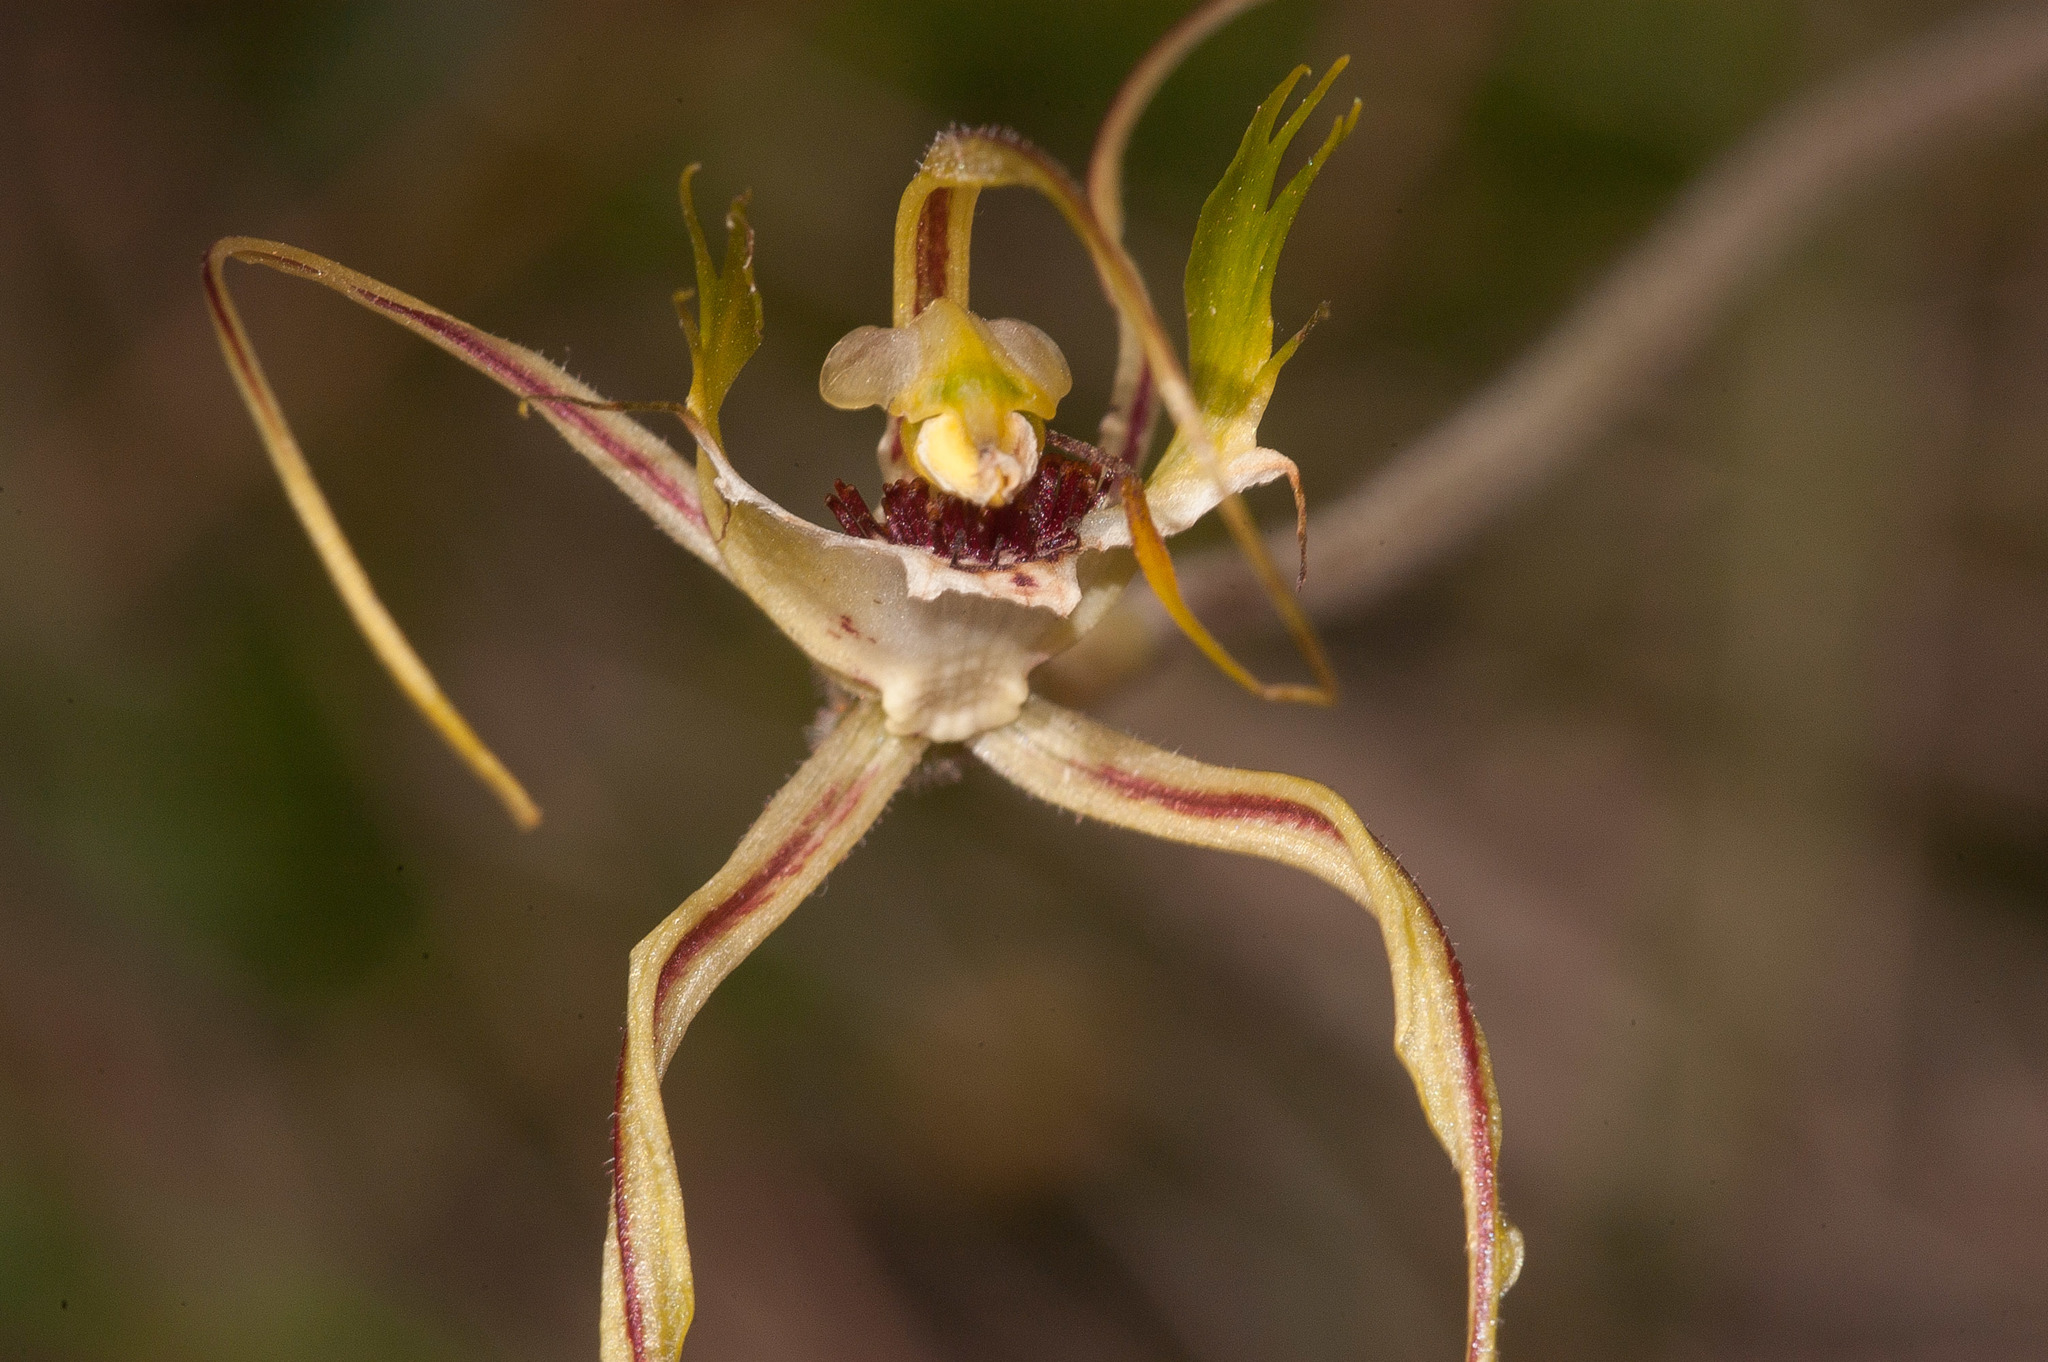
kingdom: Plantae
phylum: Tracheophyta
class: Liliopsida
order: Asparagales
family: Orchidaceae
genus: Caladenia
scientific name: Caladenia tentaculata
